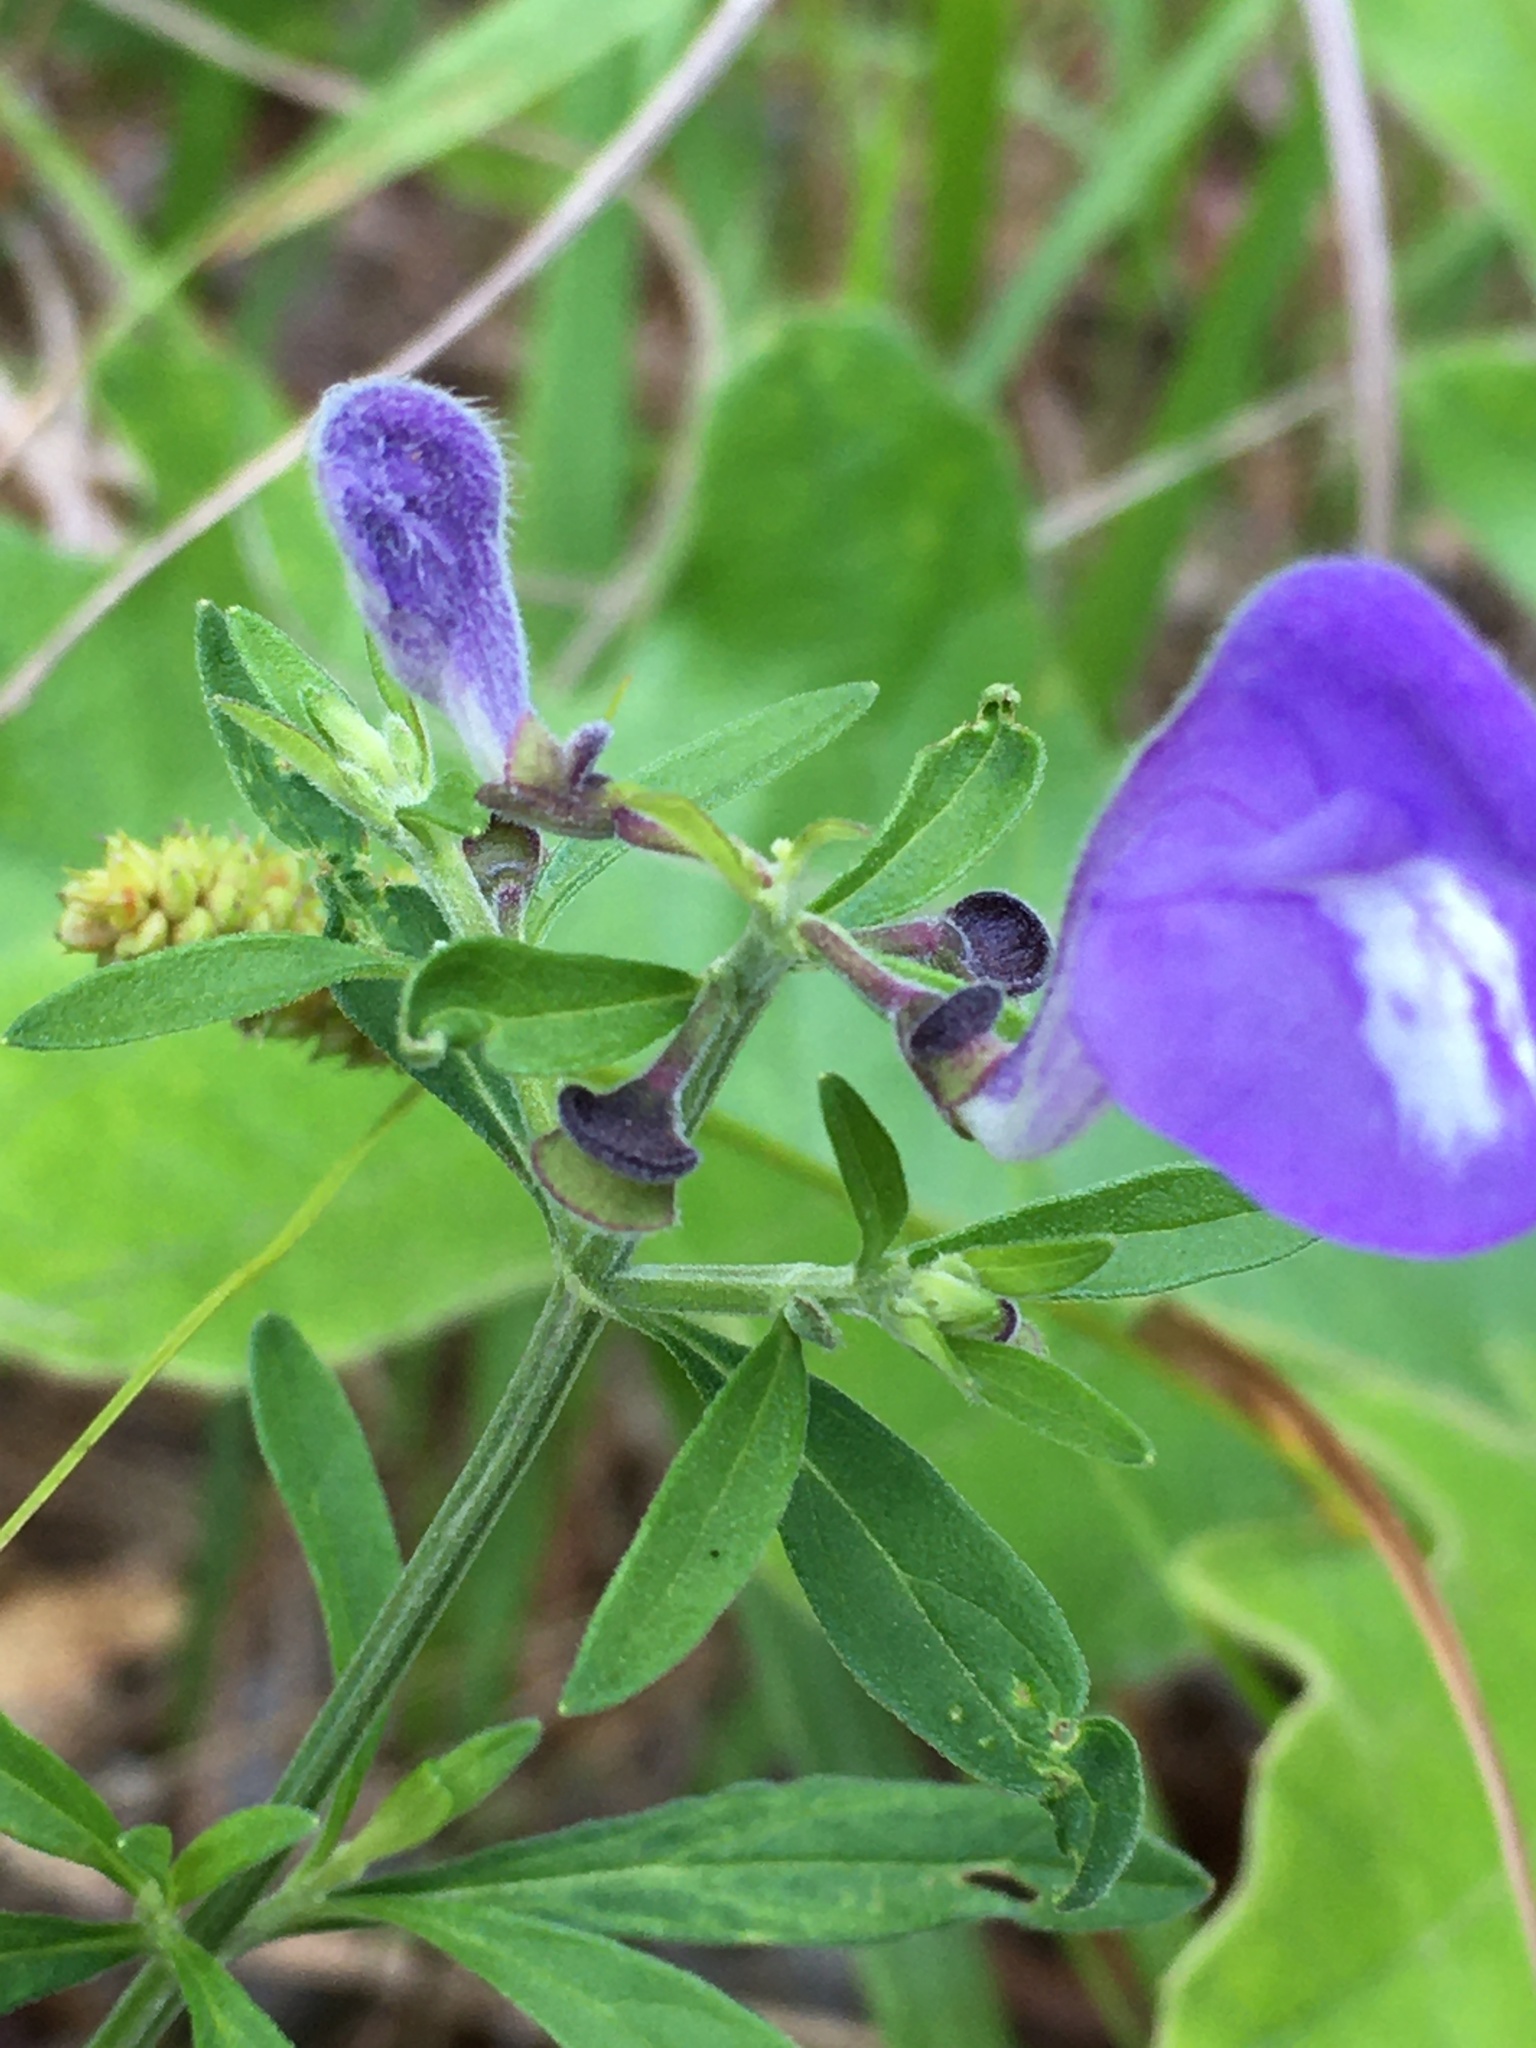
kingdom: Plantae
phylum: Tracheophyta
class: Magnoliopsida
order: Lamiales
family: Lamiaceae
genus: Scutellaria
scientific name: Scutellaria integrifolia
